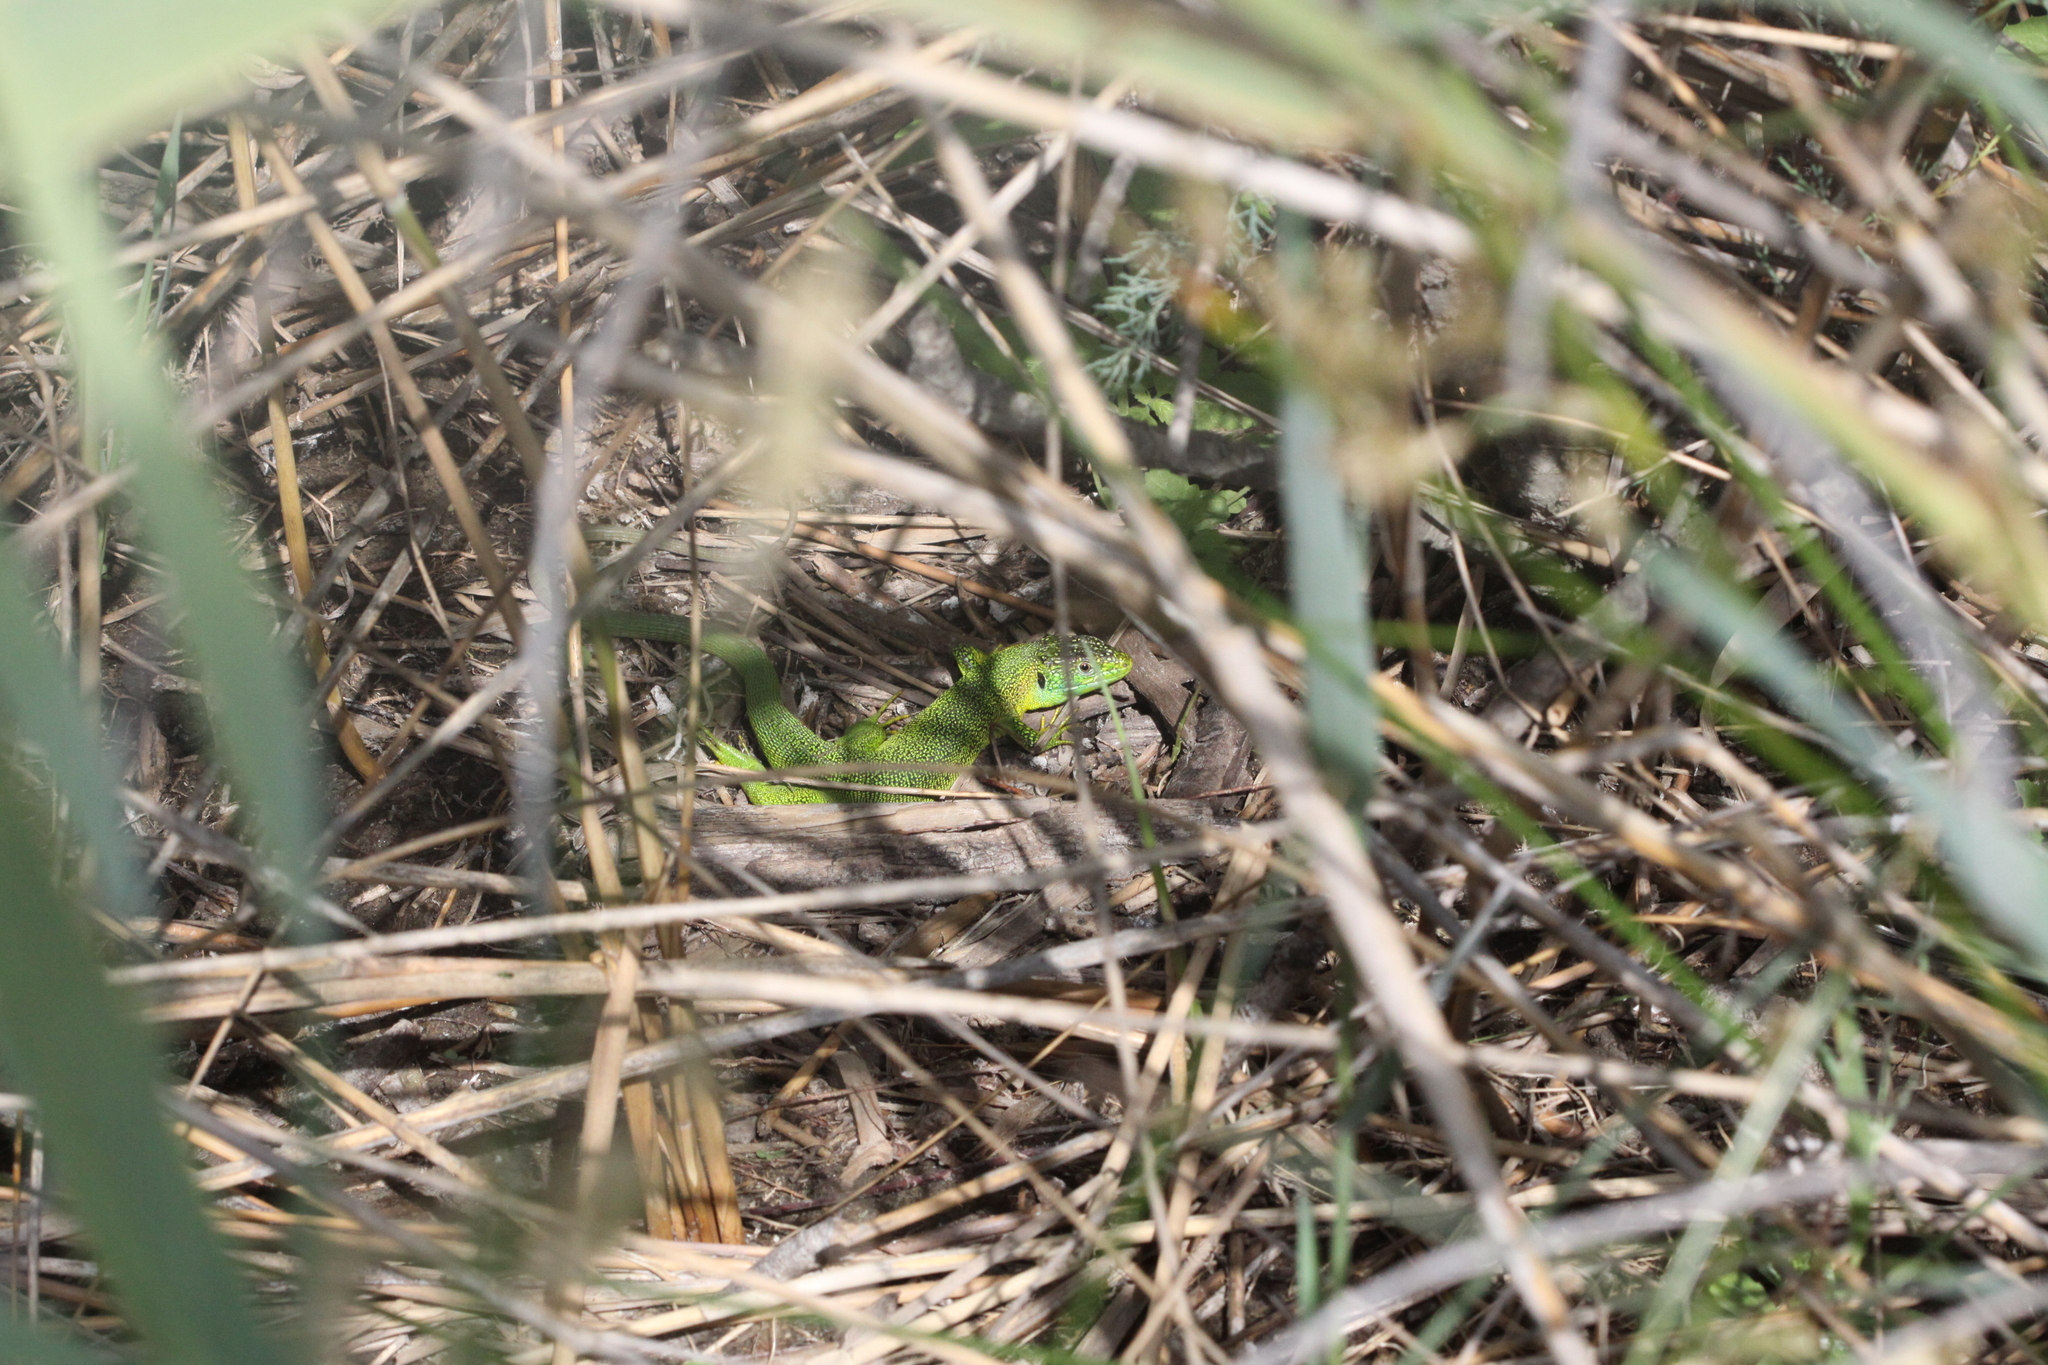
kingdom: Animalia
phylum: Chordata
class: Squamata
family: Lacertidae
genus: Lacerta
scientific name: Lacerta bilineata
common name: Western green lizard
